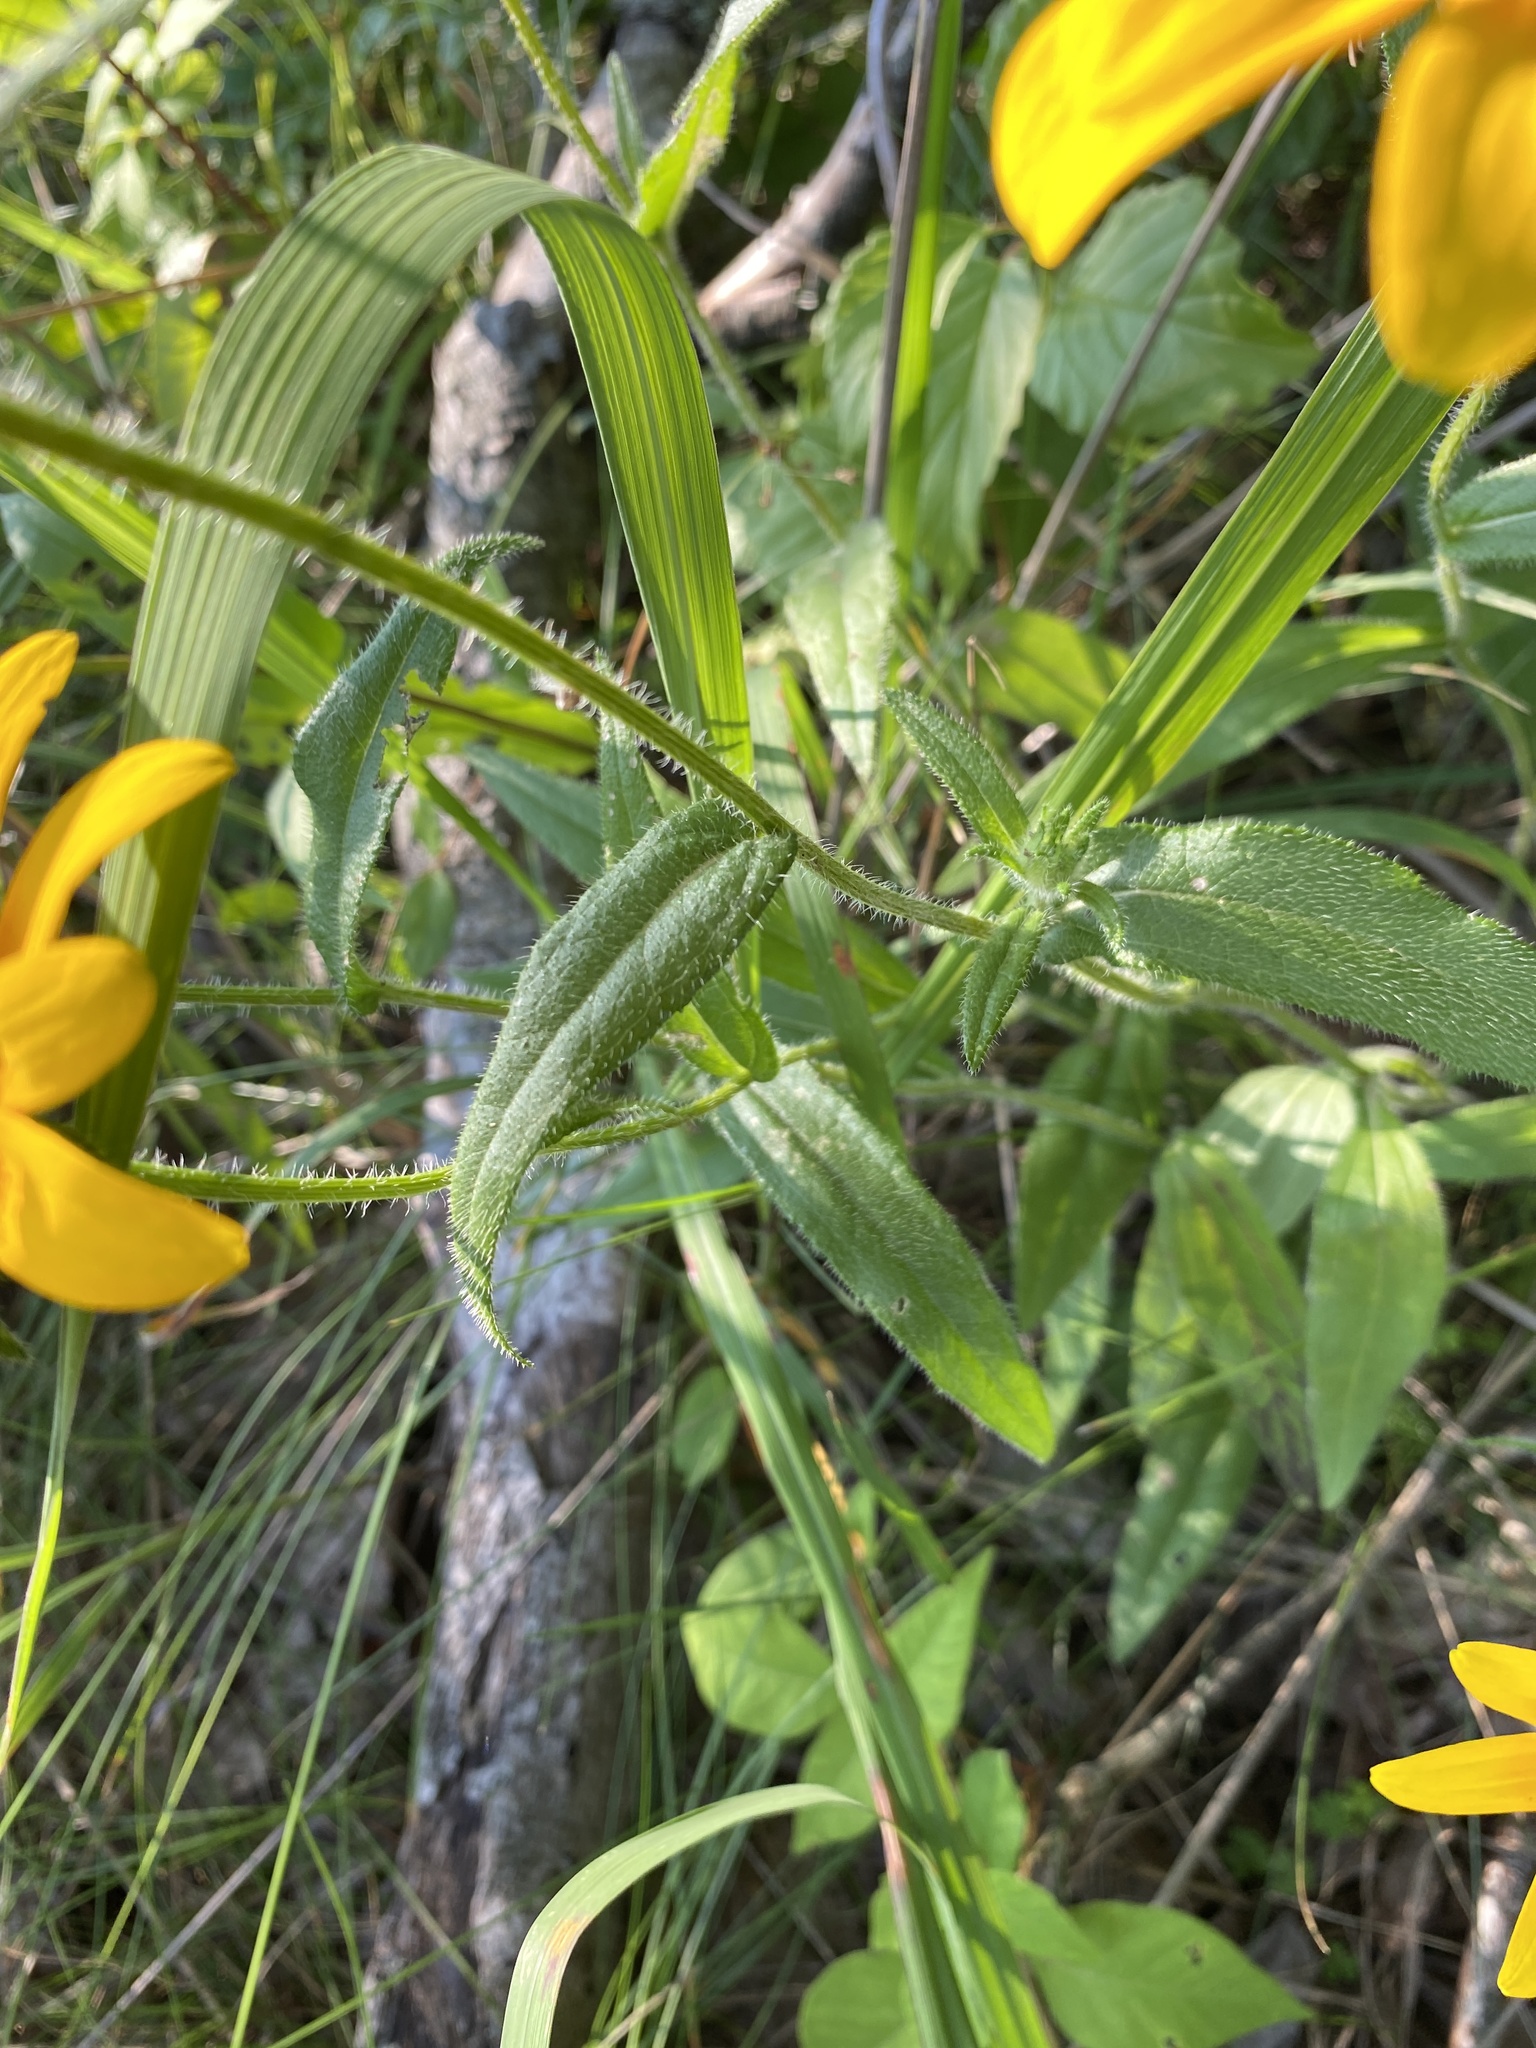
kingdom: Plantae
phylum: Tracheophyta
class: Magnoliopsida
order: Asterales
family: Asteraceae
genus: Rudbeckia
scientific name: Rudbeckia hirta
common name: Black-eyed-susan
